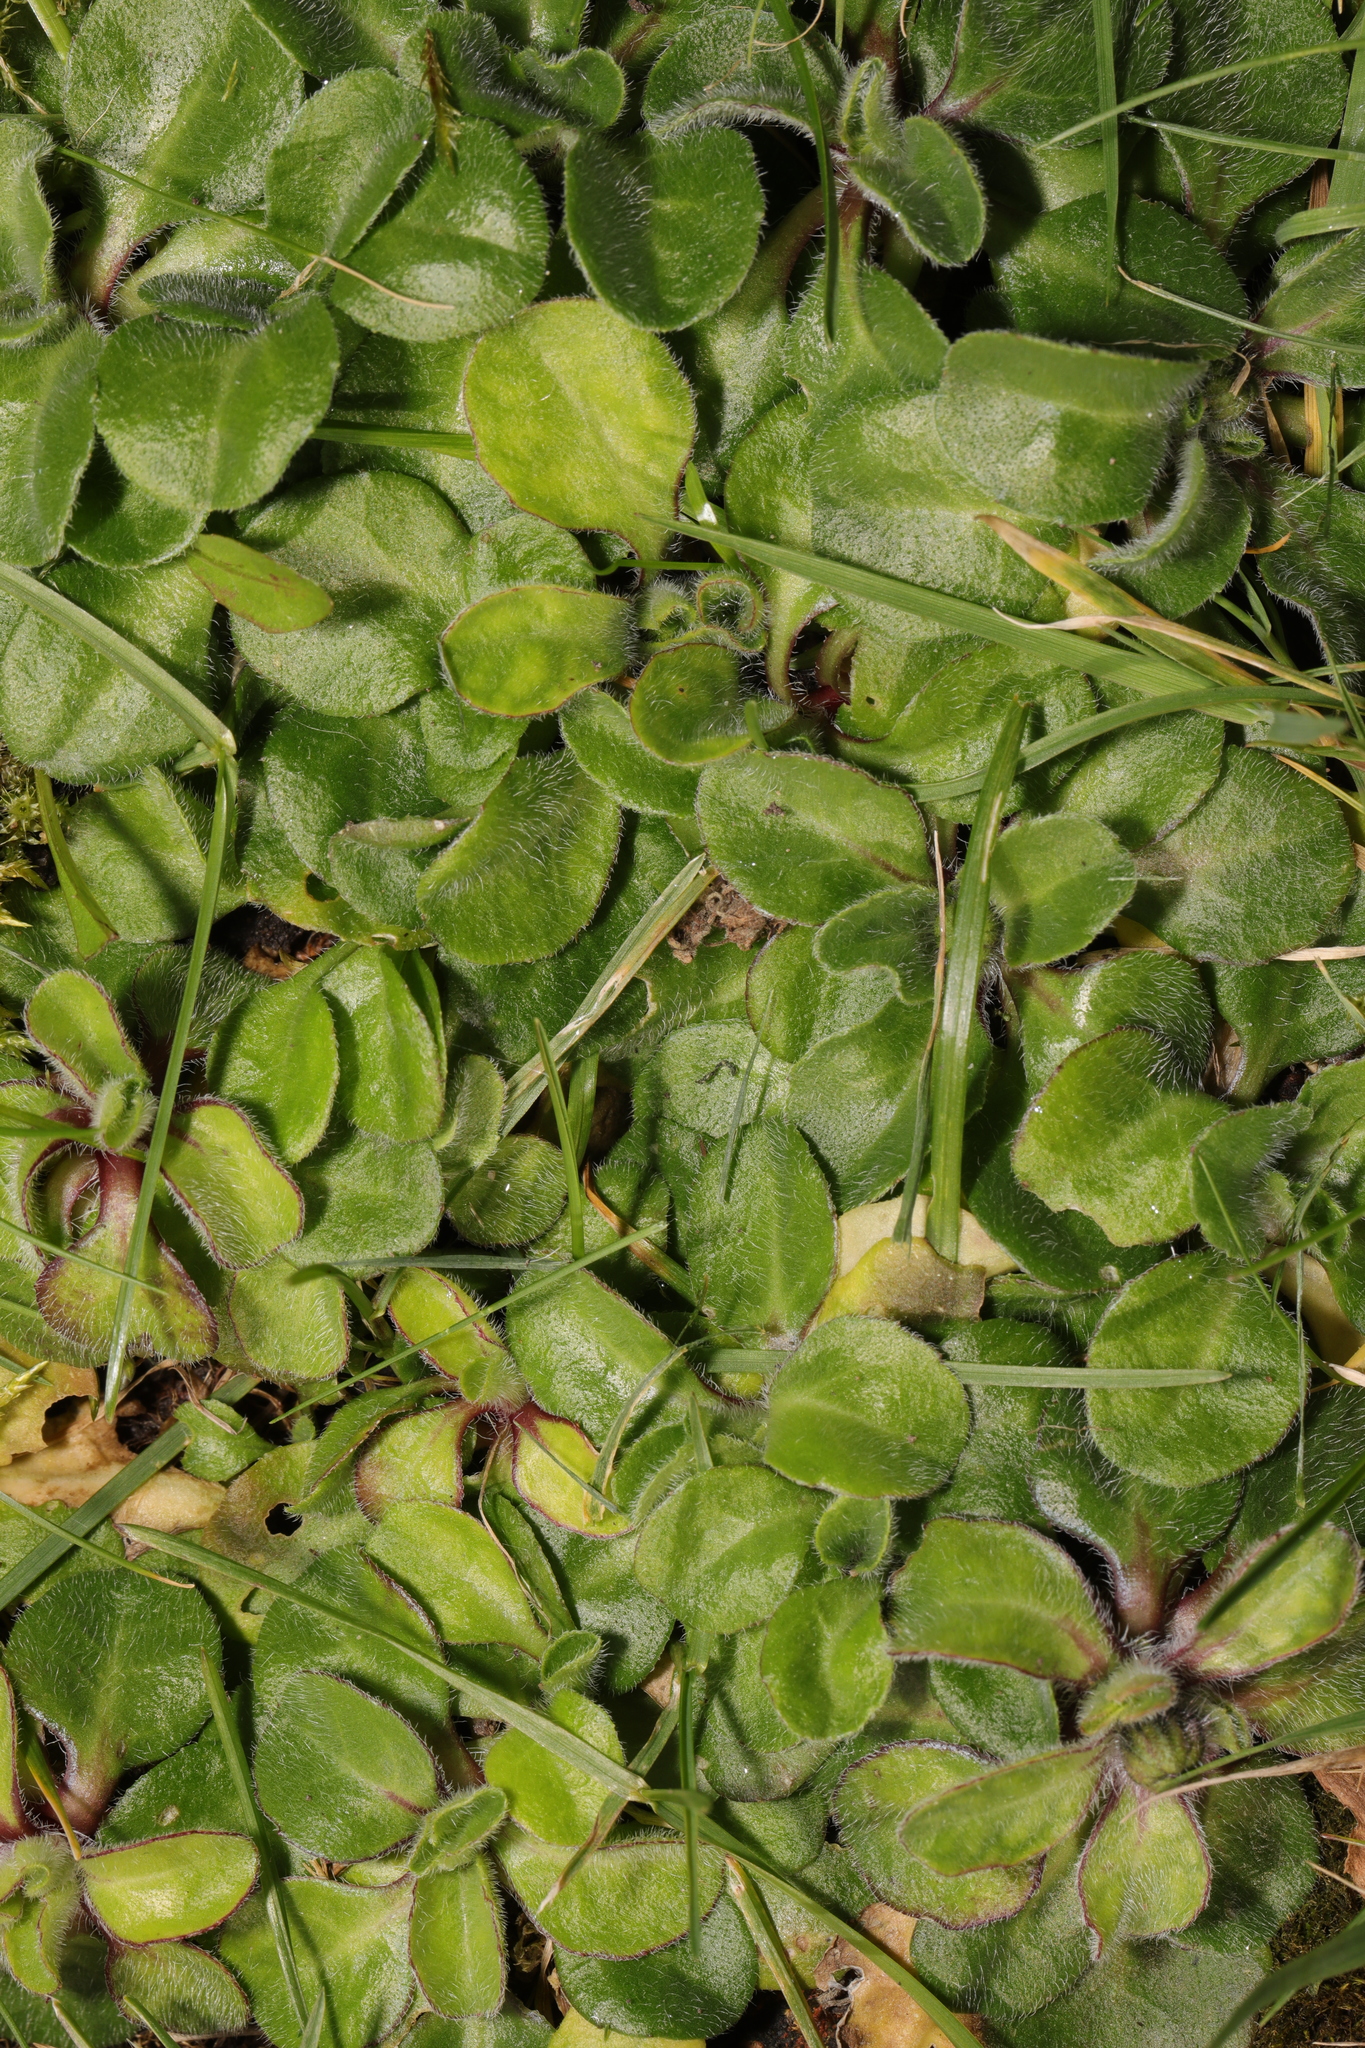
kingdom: Plantae
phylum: Tracheophyta
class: Magnoliopsida
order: Asterales
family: Asteraceae
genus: Bellis
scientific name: Bellis perennis
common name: Lawndaisy
